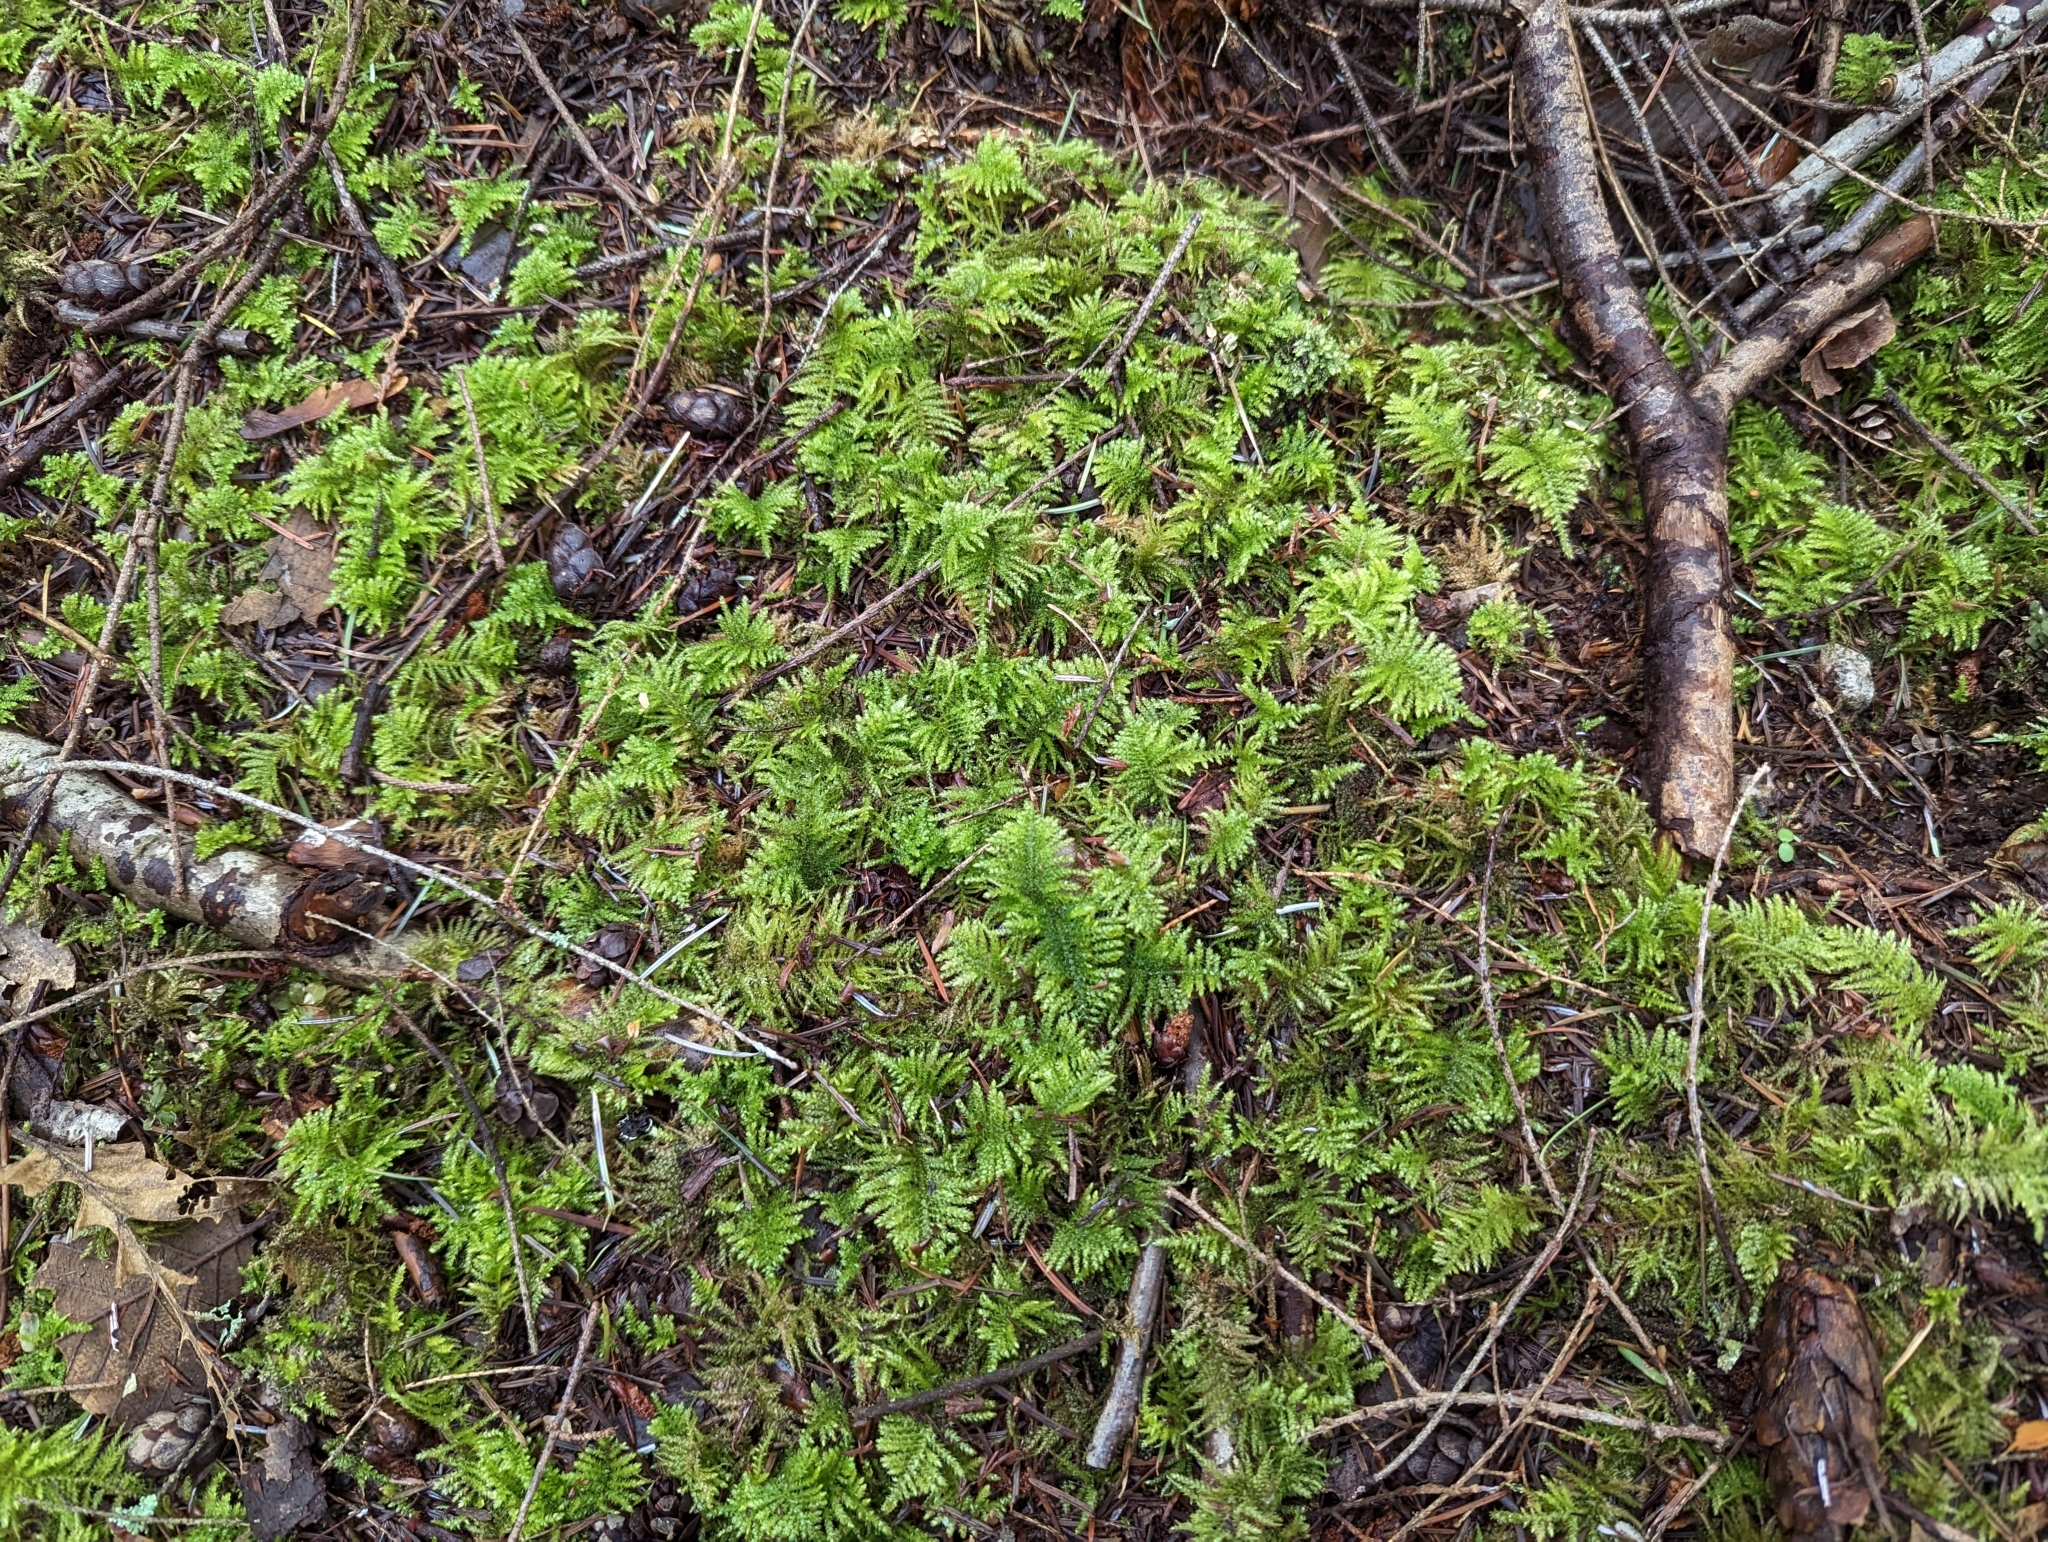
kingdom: Plantae
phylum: Bryophyta
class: Bryopsida
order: Hypnales
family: Brachytheciaceae
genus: Kindbergia
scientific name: Kindbergia oregana
